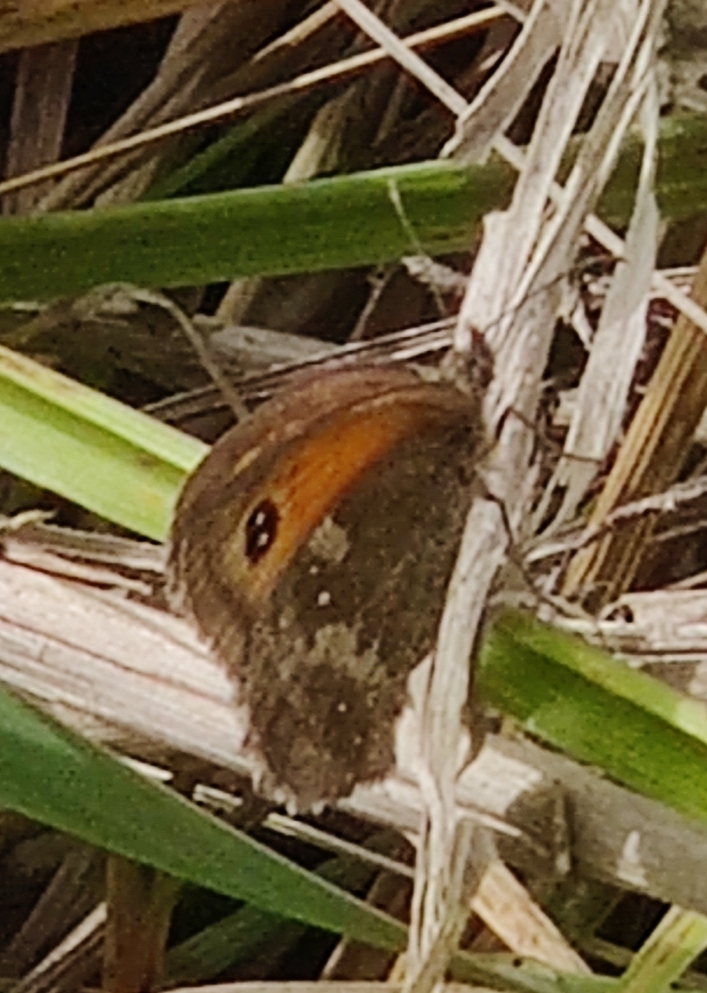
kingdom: Animalia
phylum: Arthropoda
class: Insecta
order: Lepidoptera
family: Nymphalidae
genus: Pyronia
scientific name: Pyronia tithonus
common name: Gatekeeper
